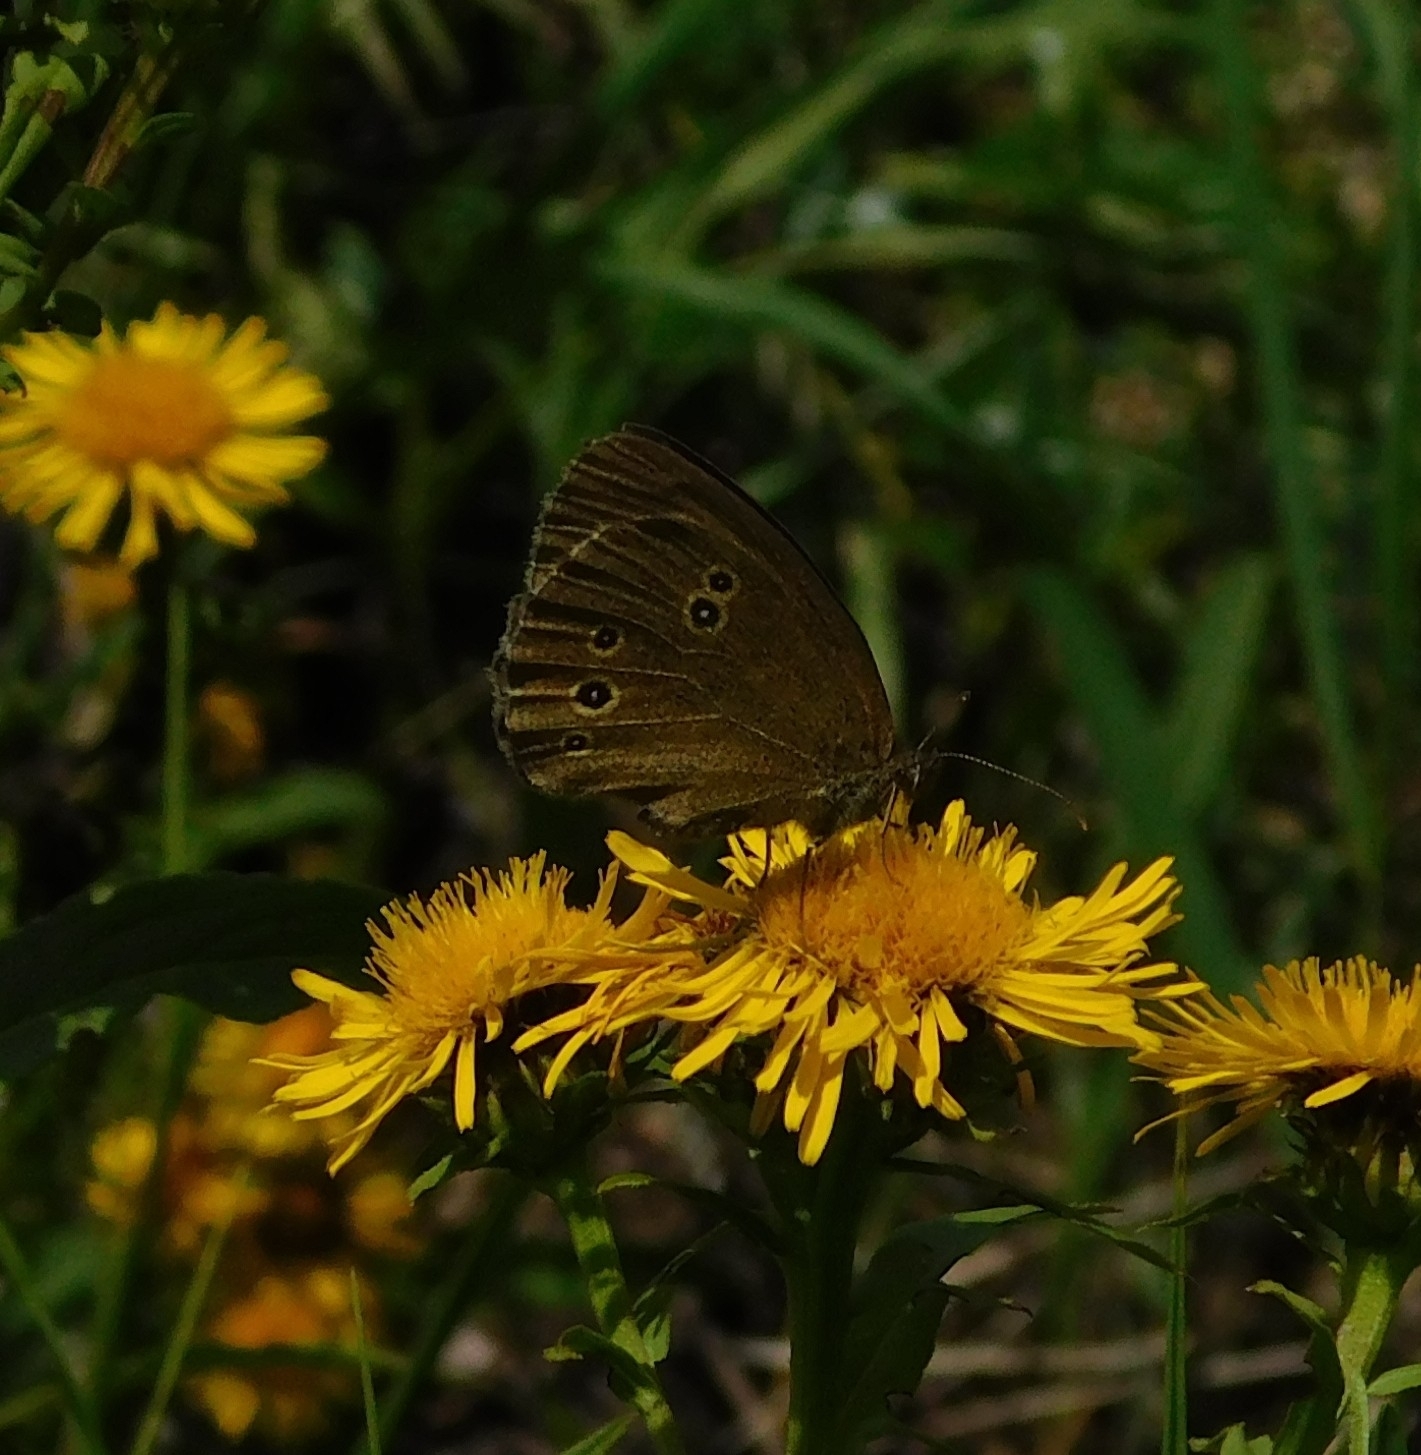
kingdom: Animalia
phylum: Arthropoda
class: Insecta
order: Lepidoptera
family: Nymphalidae
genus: Aphantopus
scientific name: Aphantopus hyperantus
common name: Ringlet
